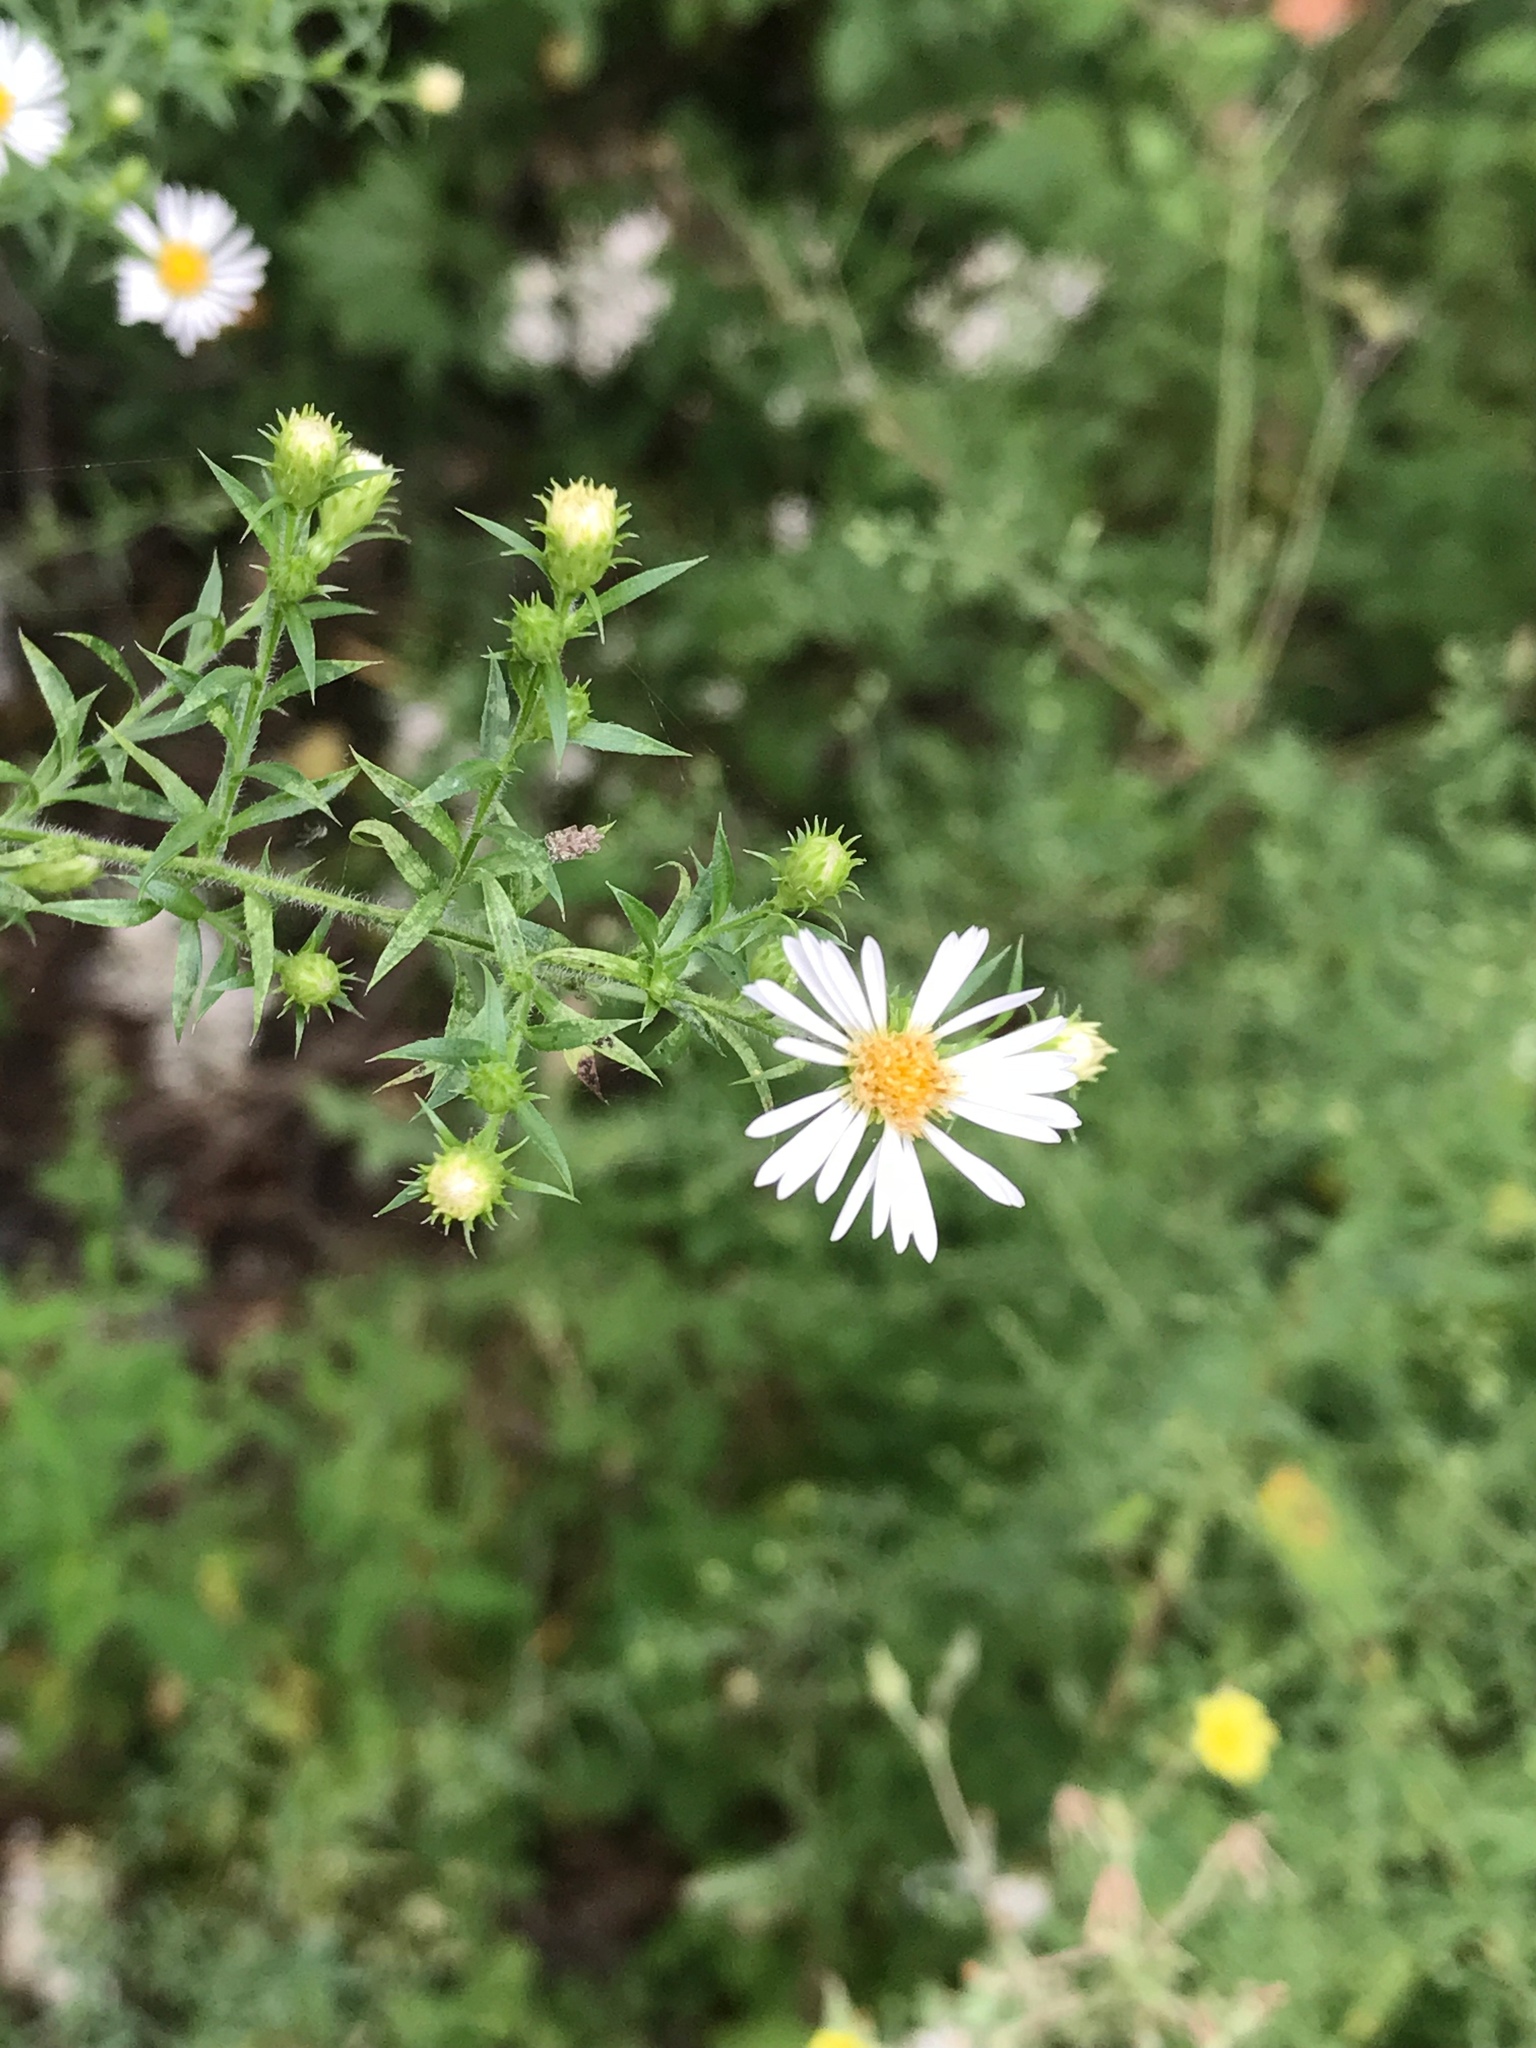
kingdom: Plantae
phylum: Tracheophyta
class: Magnoliopsida
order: Asterales
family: Asteraceae
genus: Symphyotrichum
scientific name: Symphyotrichum pilosum
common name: Awl aster
